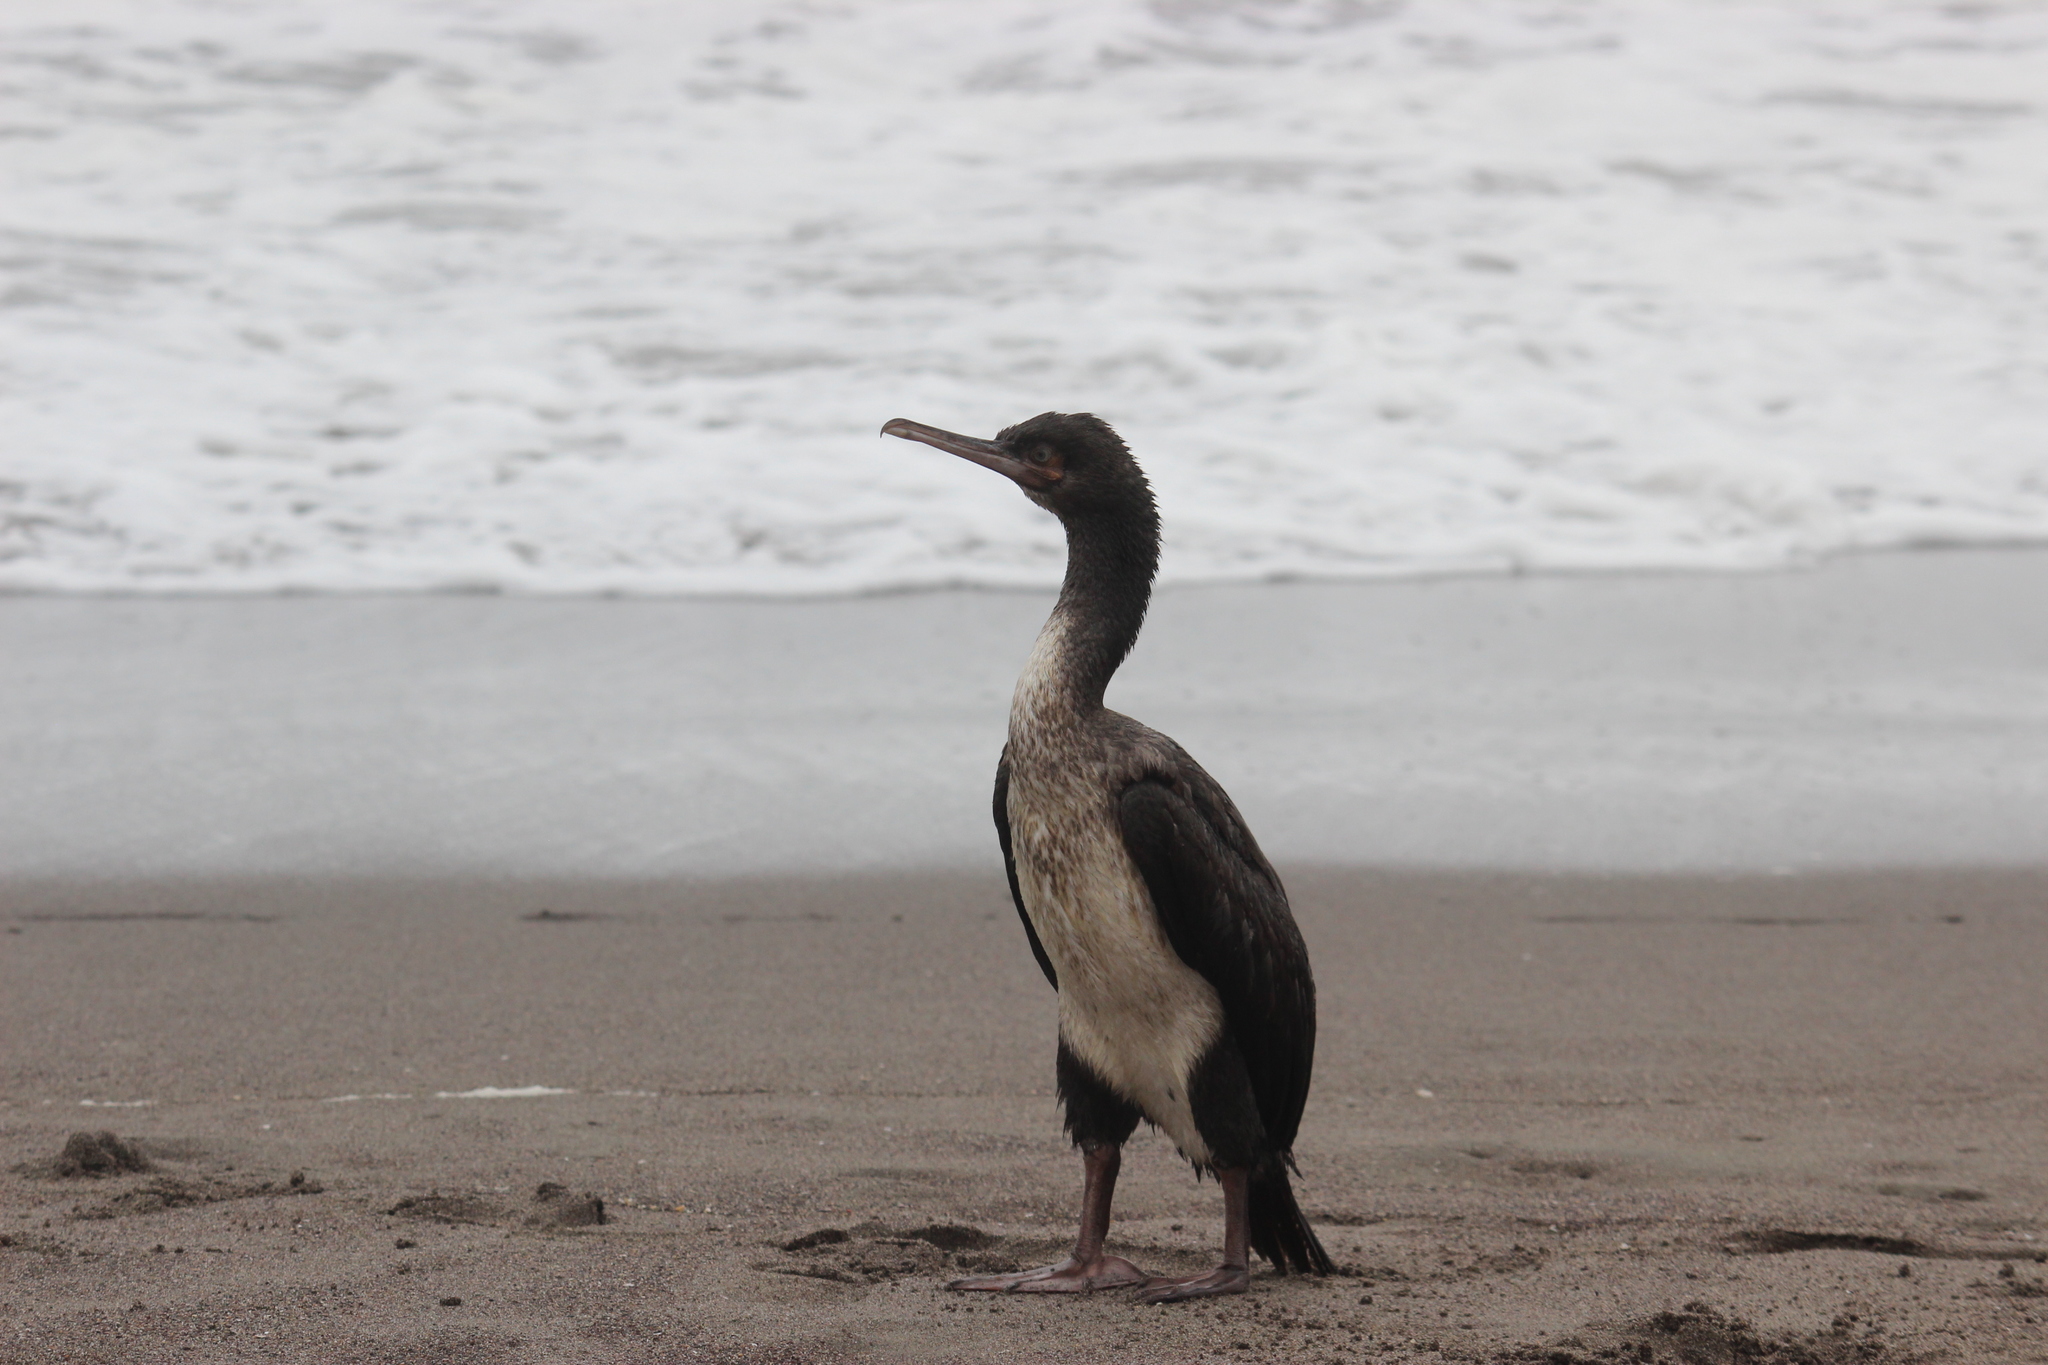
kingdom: Animalia
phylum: Chordata
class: Aves
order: Suliformes
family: Phalacrocoracidae
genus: Leucocarbo
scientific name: Leucocarbo bougainvillii
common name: Guanay cormorant
